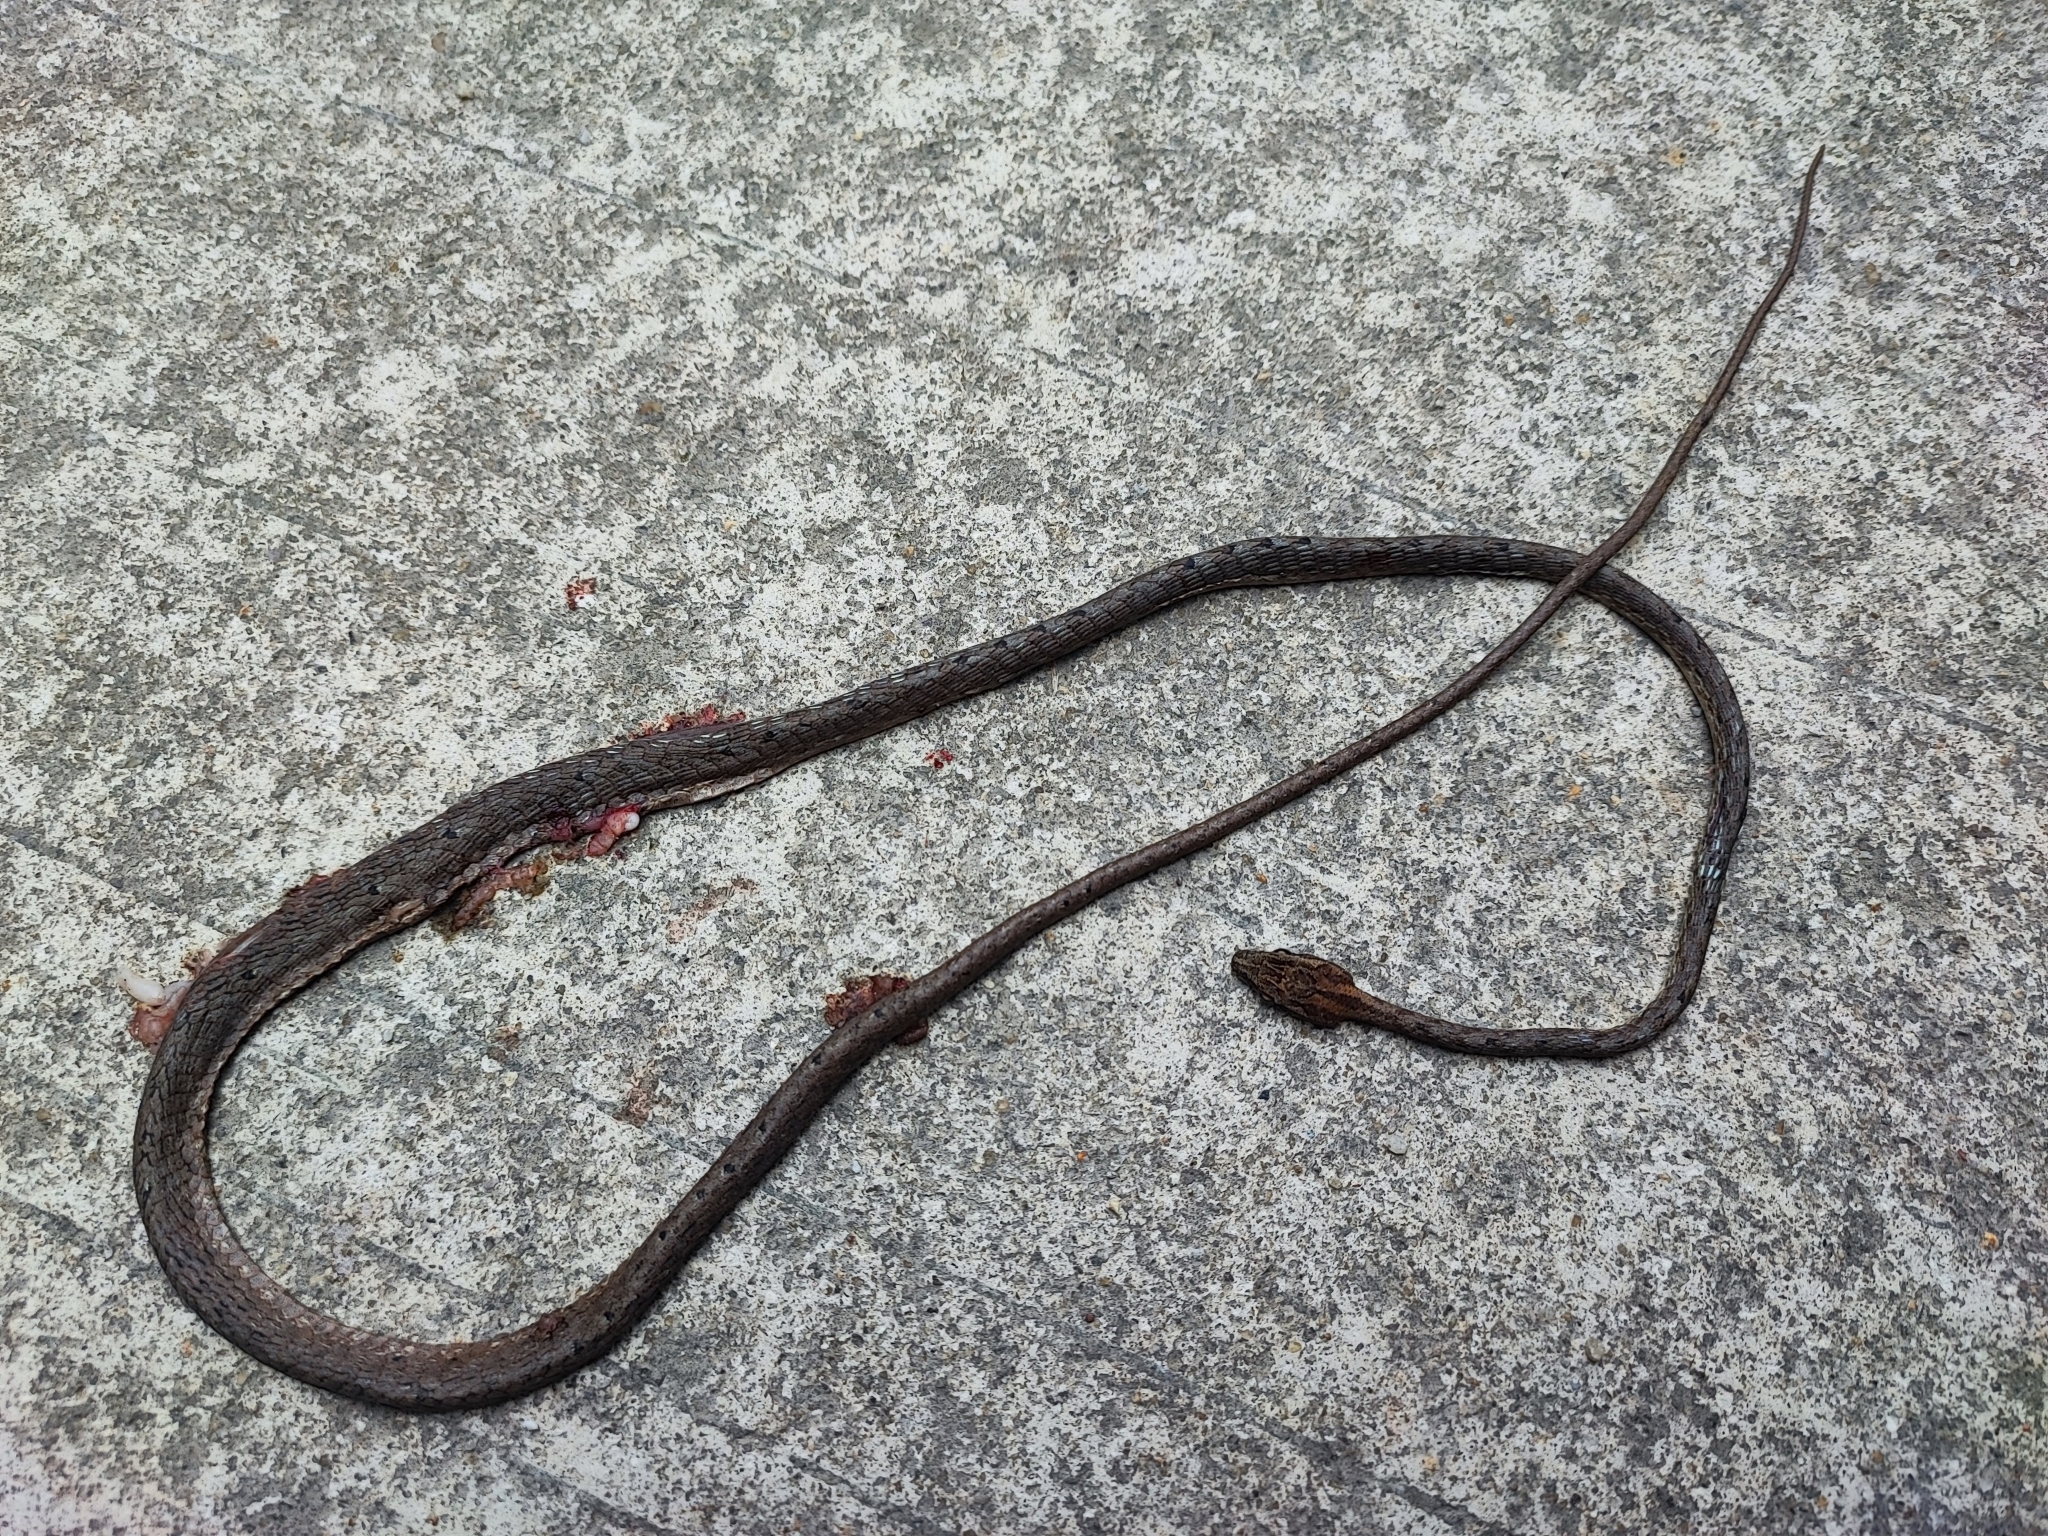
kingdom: Animalia
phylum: Chordata
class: Squamata
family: Colubridae
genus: Dryophiops
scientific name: Dryophiops rubescens
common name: Red whip snake
